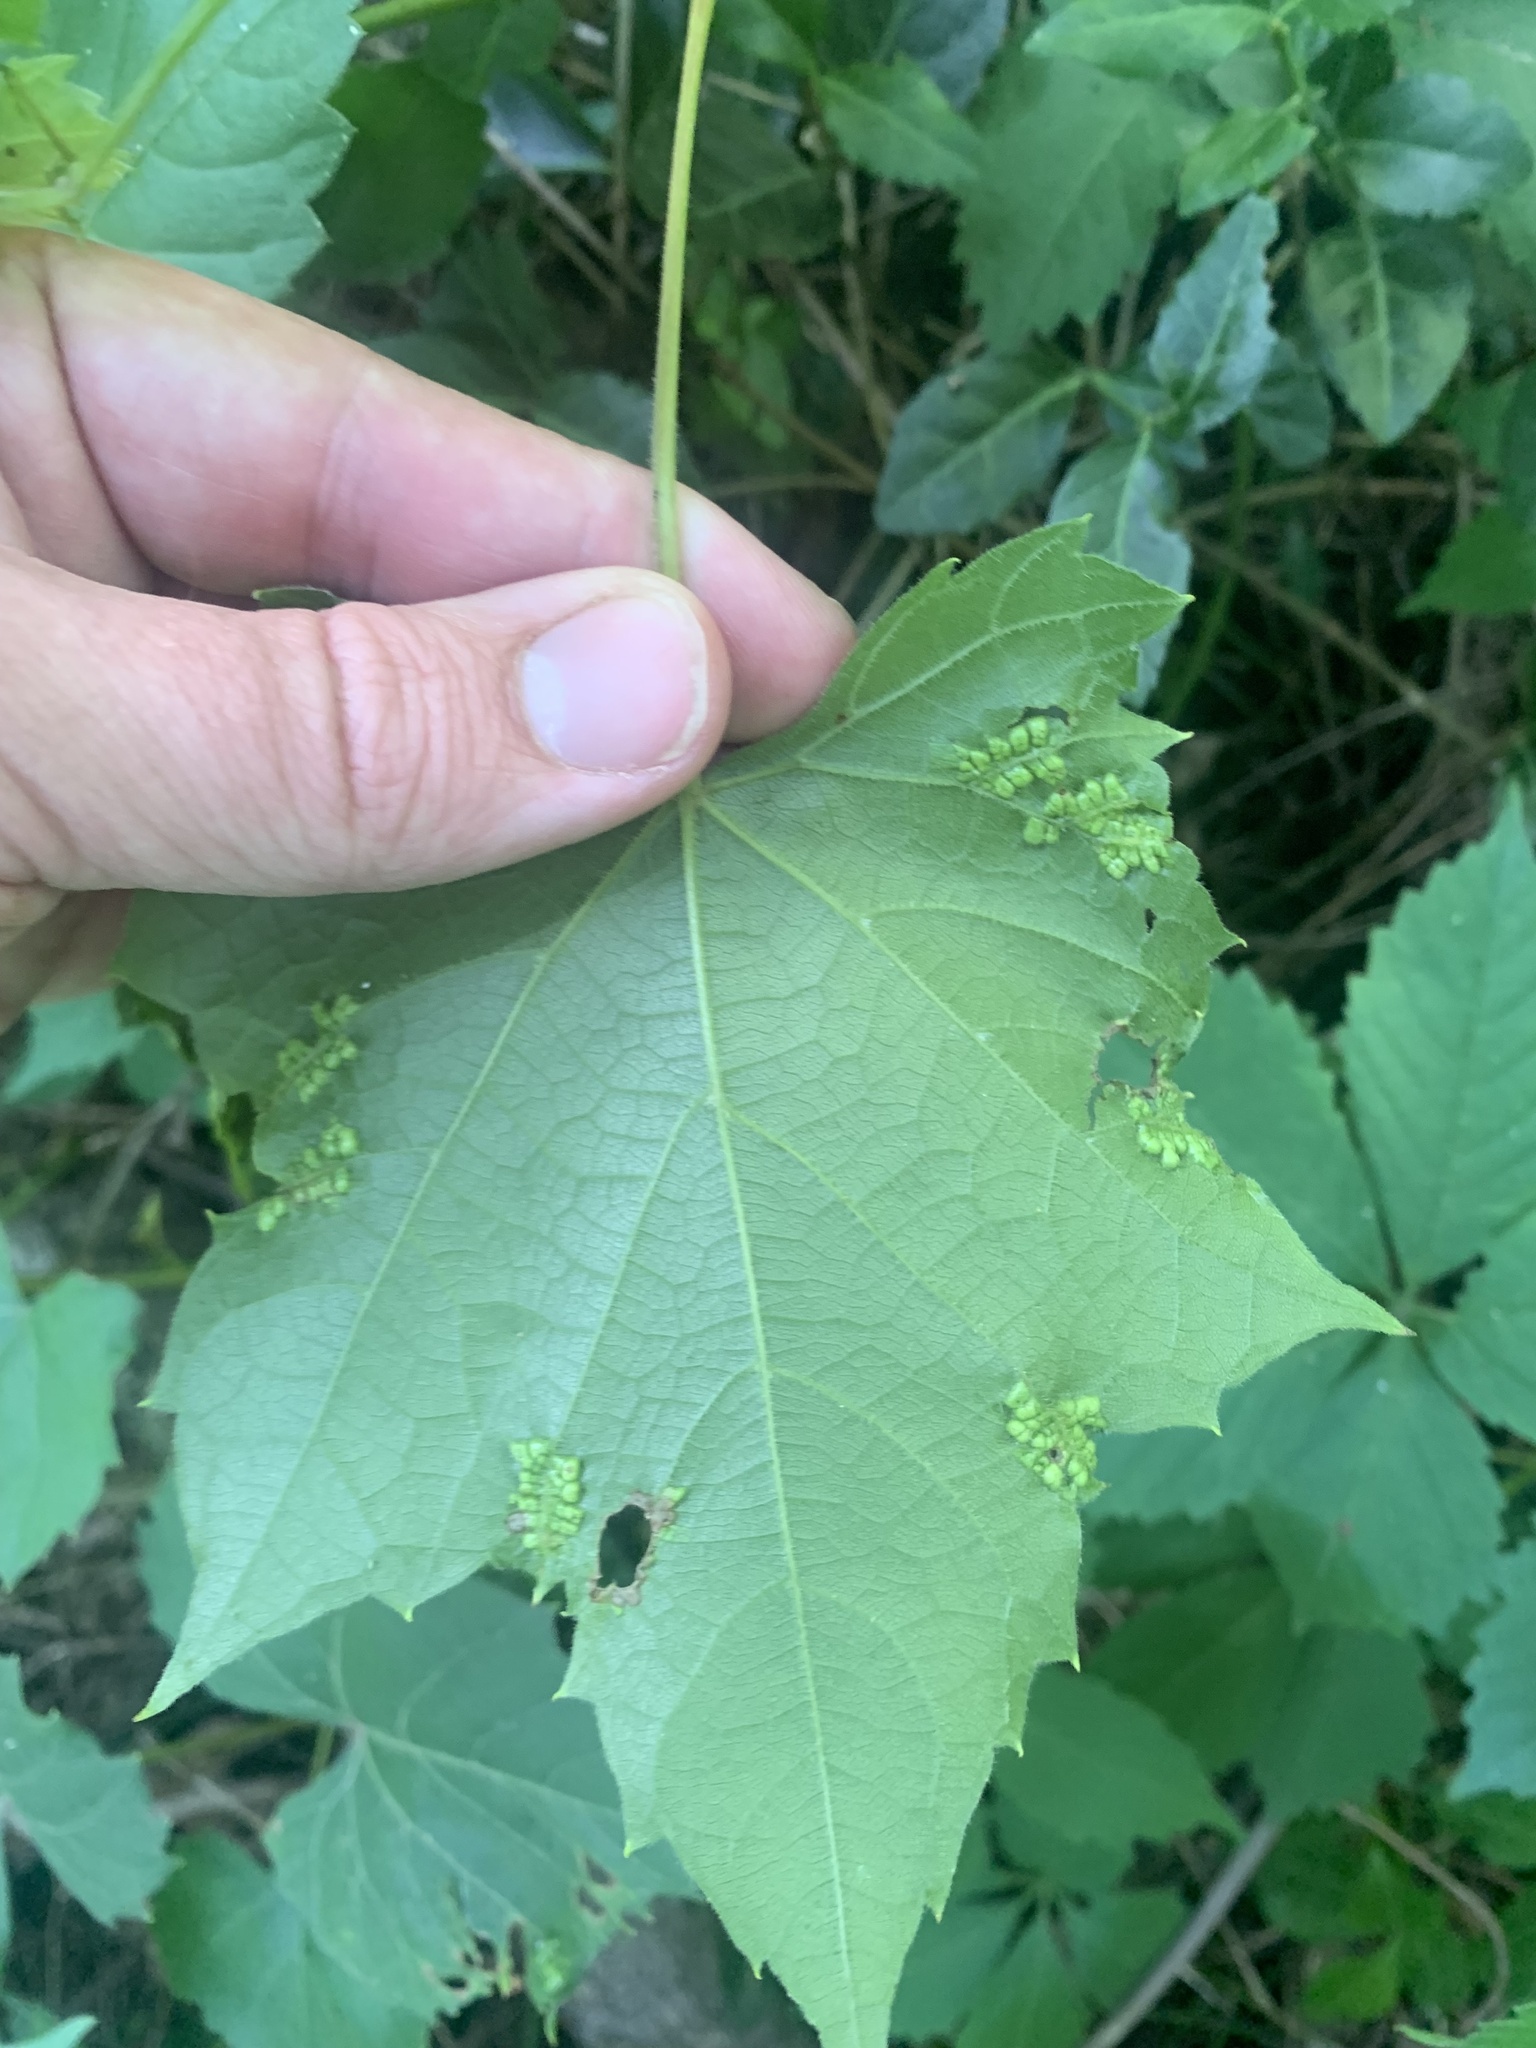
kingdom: Animalia
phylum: Arthropoda
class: Insecta
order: Lepidoptera
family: Heliozelidae
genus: Heliozela
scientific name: Heliozela aesella
